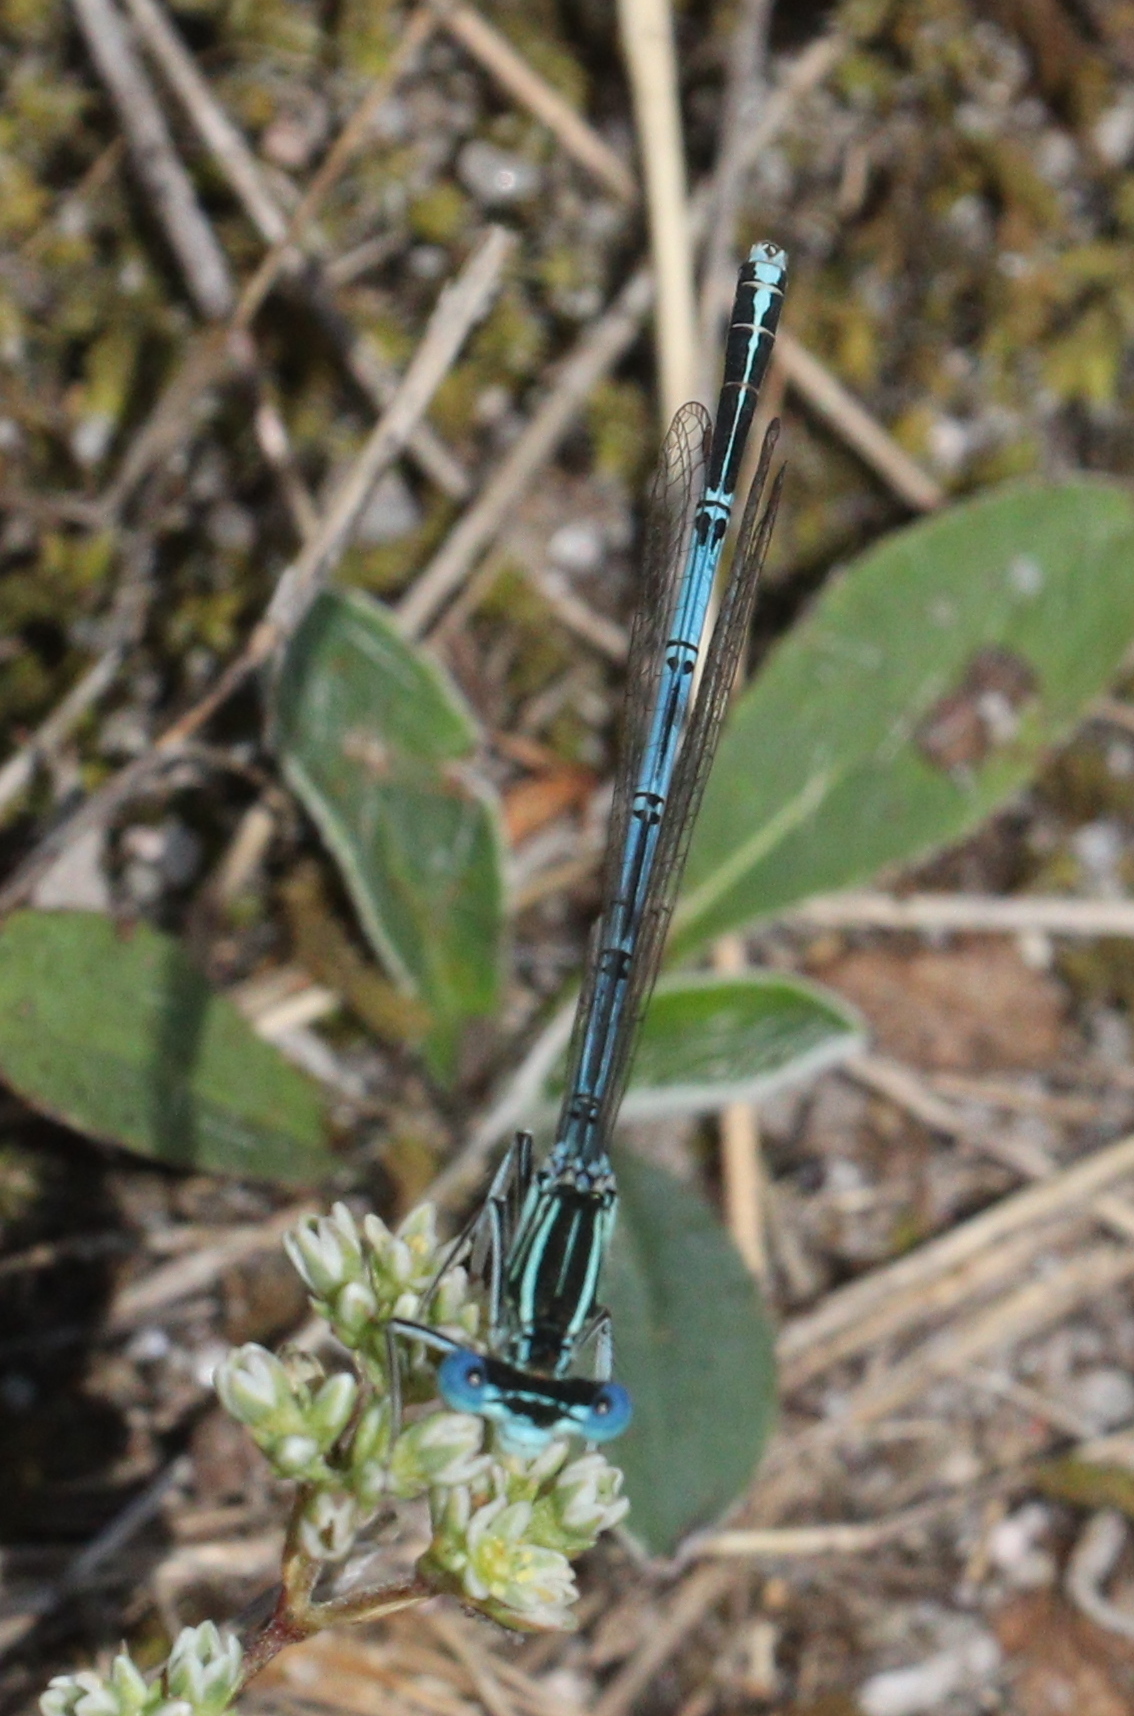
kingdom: Animalia
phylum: Arthropoda
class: Insecta
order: Odonata
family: Platycnemididae
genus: Platycnemis
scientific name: Platycnemis pennipes
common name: White-legged damselfly
